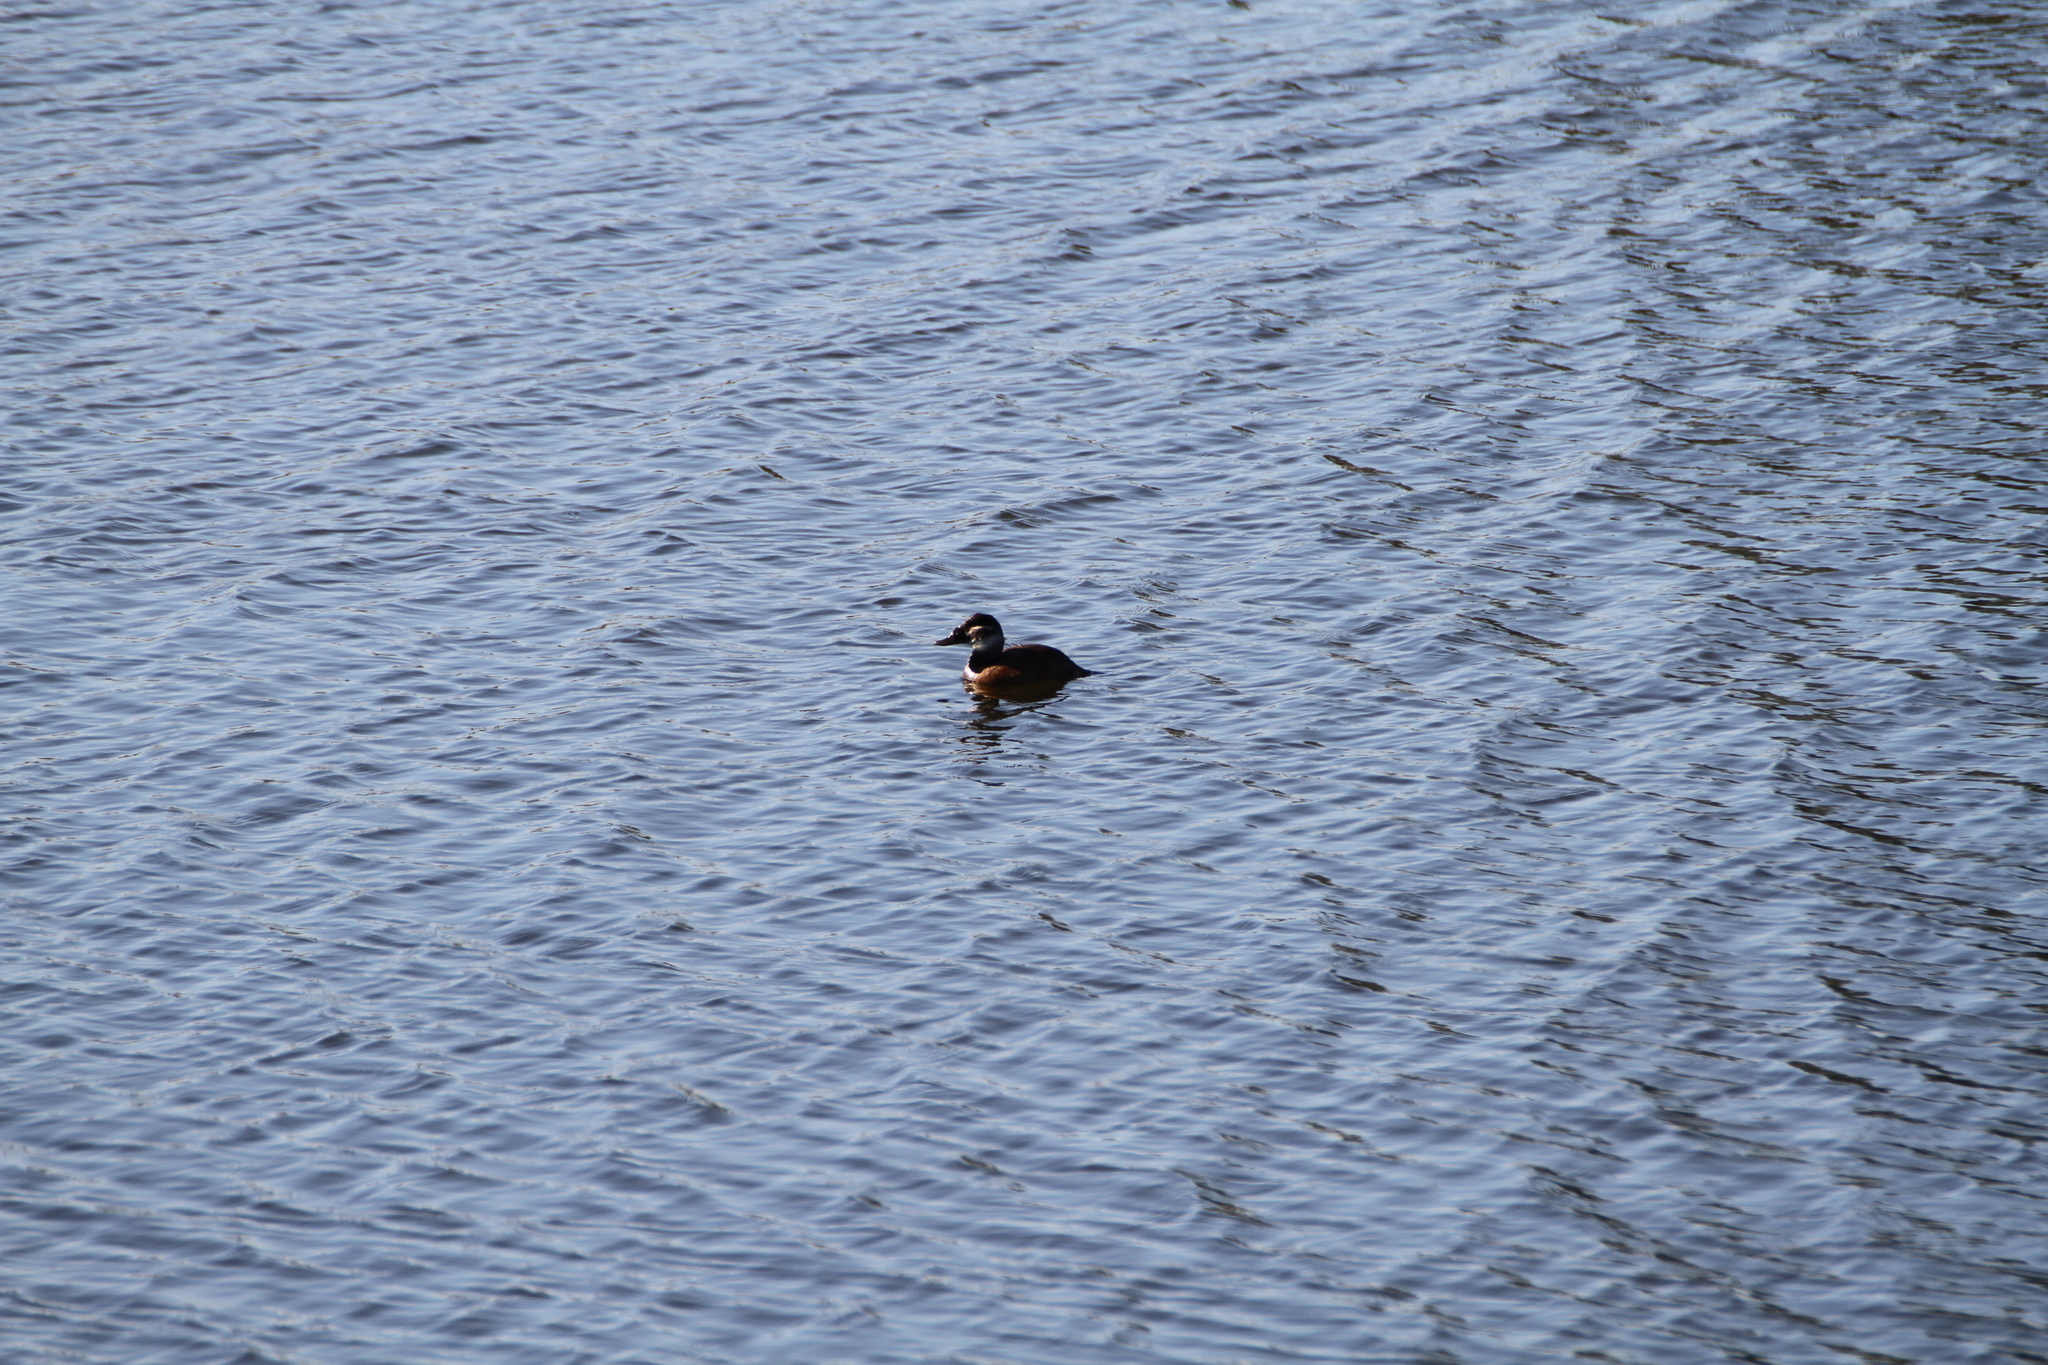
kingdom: Animalia
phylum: Chordata
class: Aves
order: Anseriformes
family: Anatidae
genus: Oxyura
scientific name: Oxyura leucocephala
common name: White-headed duck
